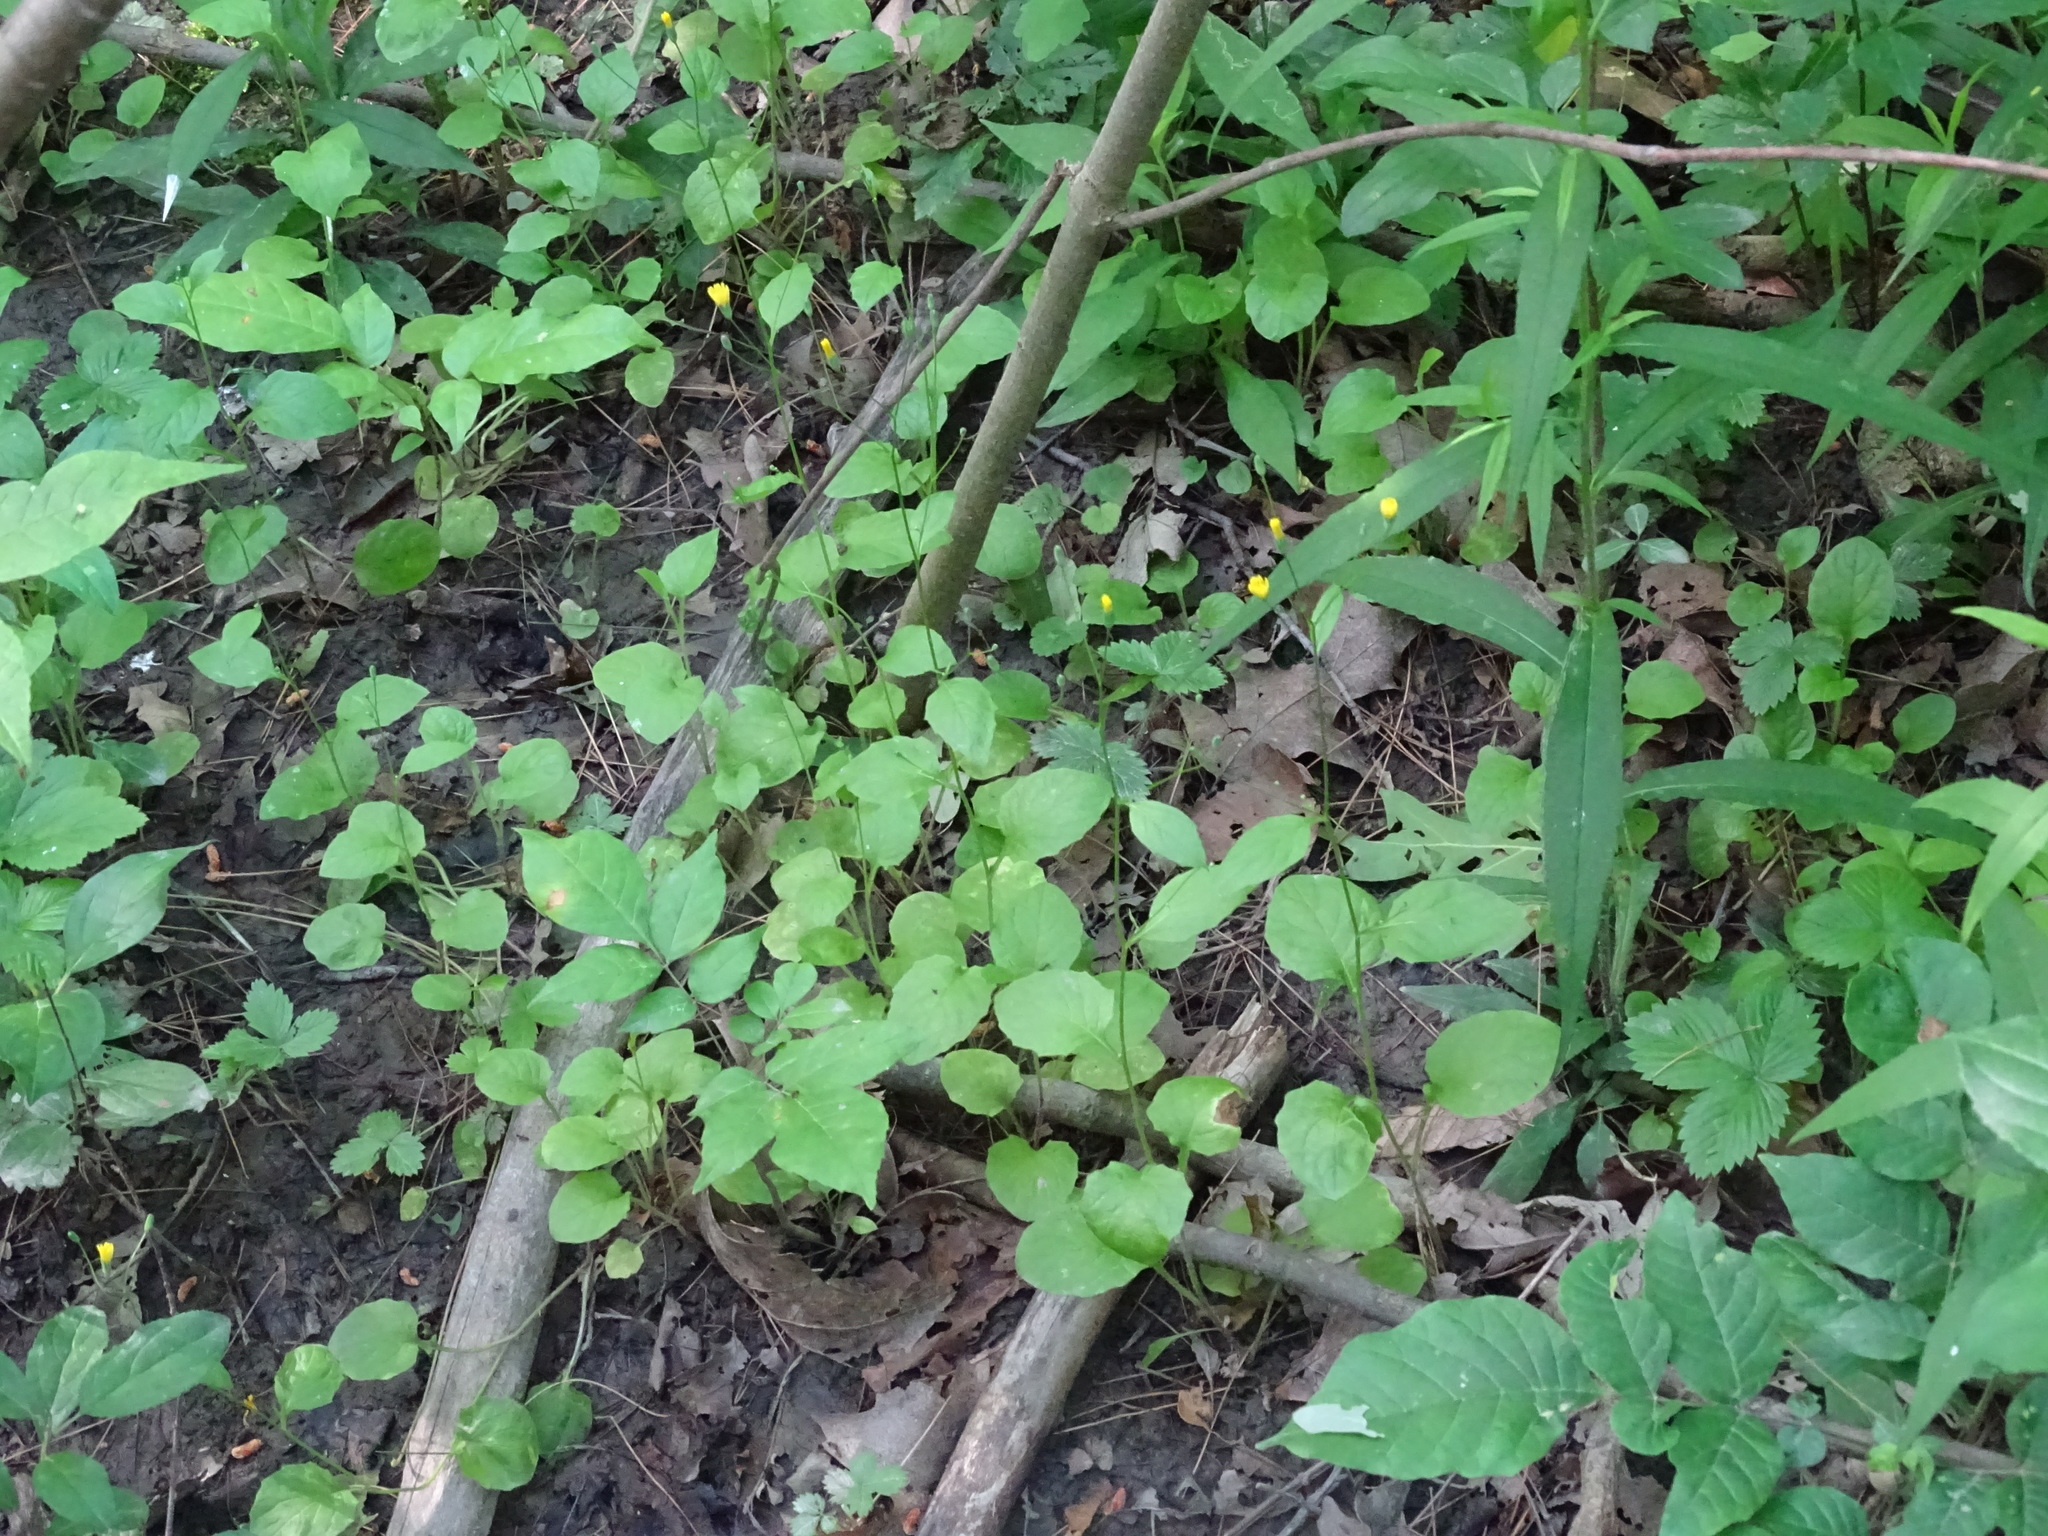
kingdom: Plantae
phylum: Tracheophyta
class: Magnoliopsida
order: Asterales
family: Asteraceae
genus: Lapsana
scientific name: Lapsana communis
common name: Nipplewort
